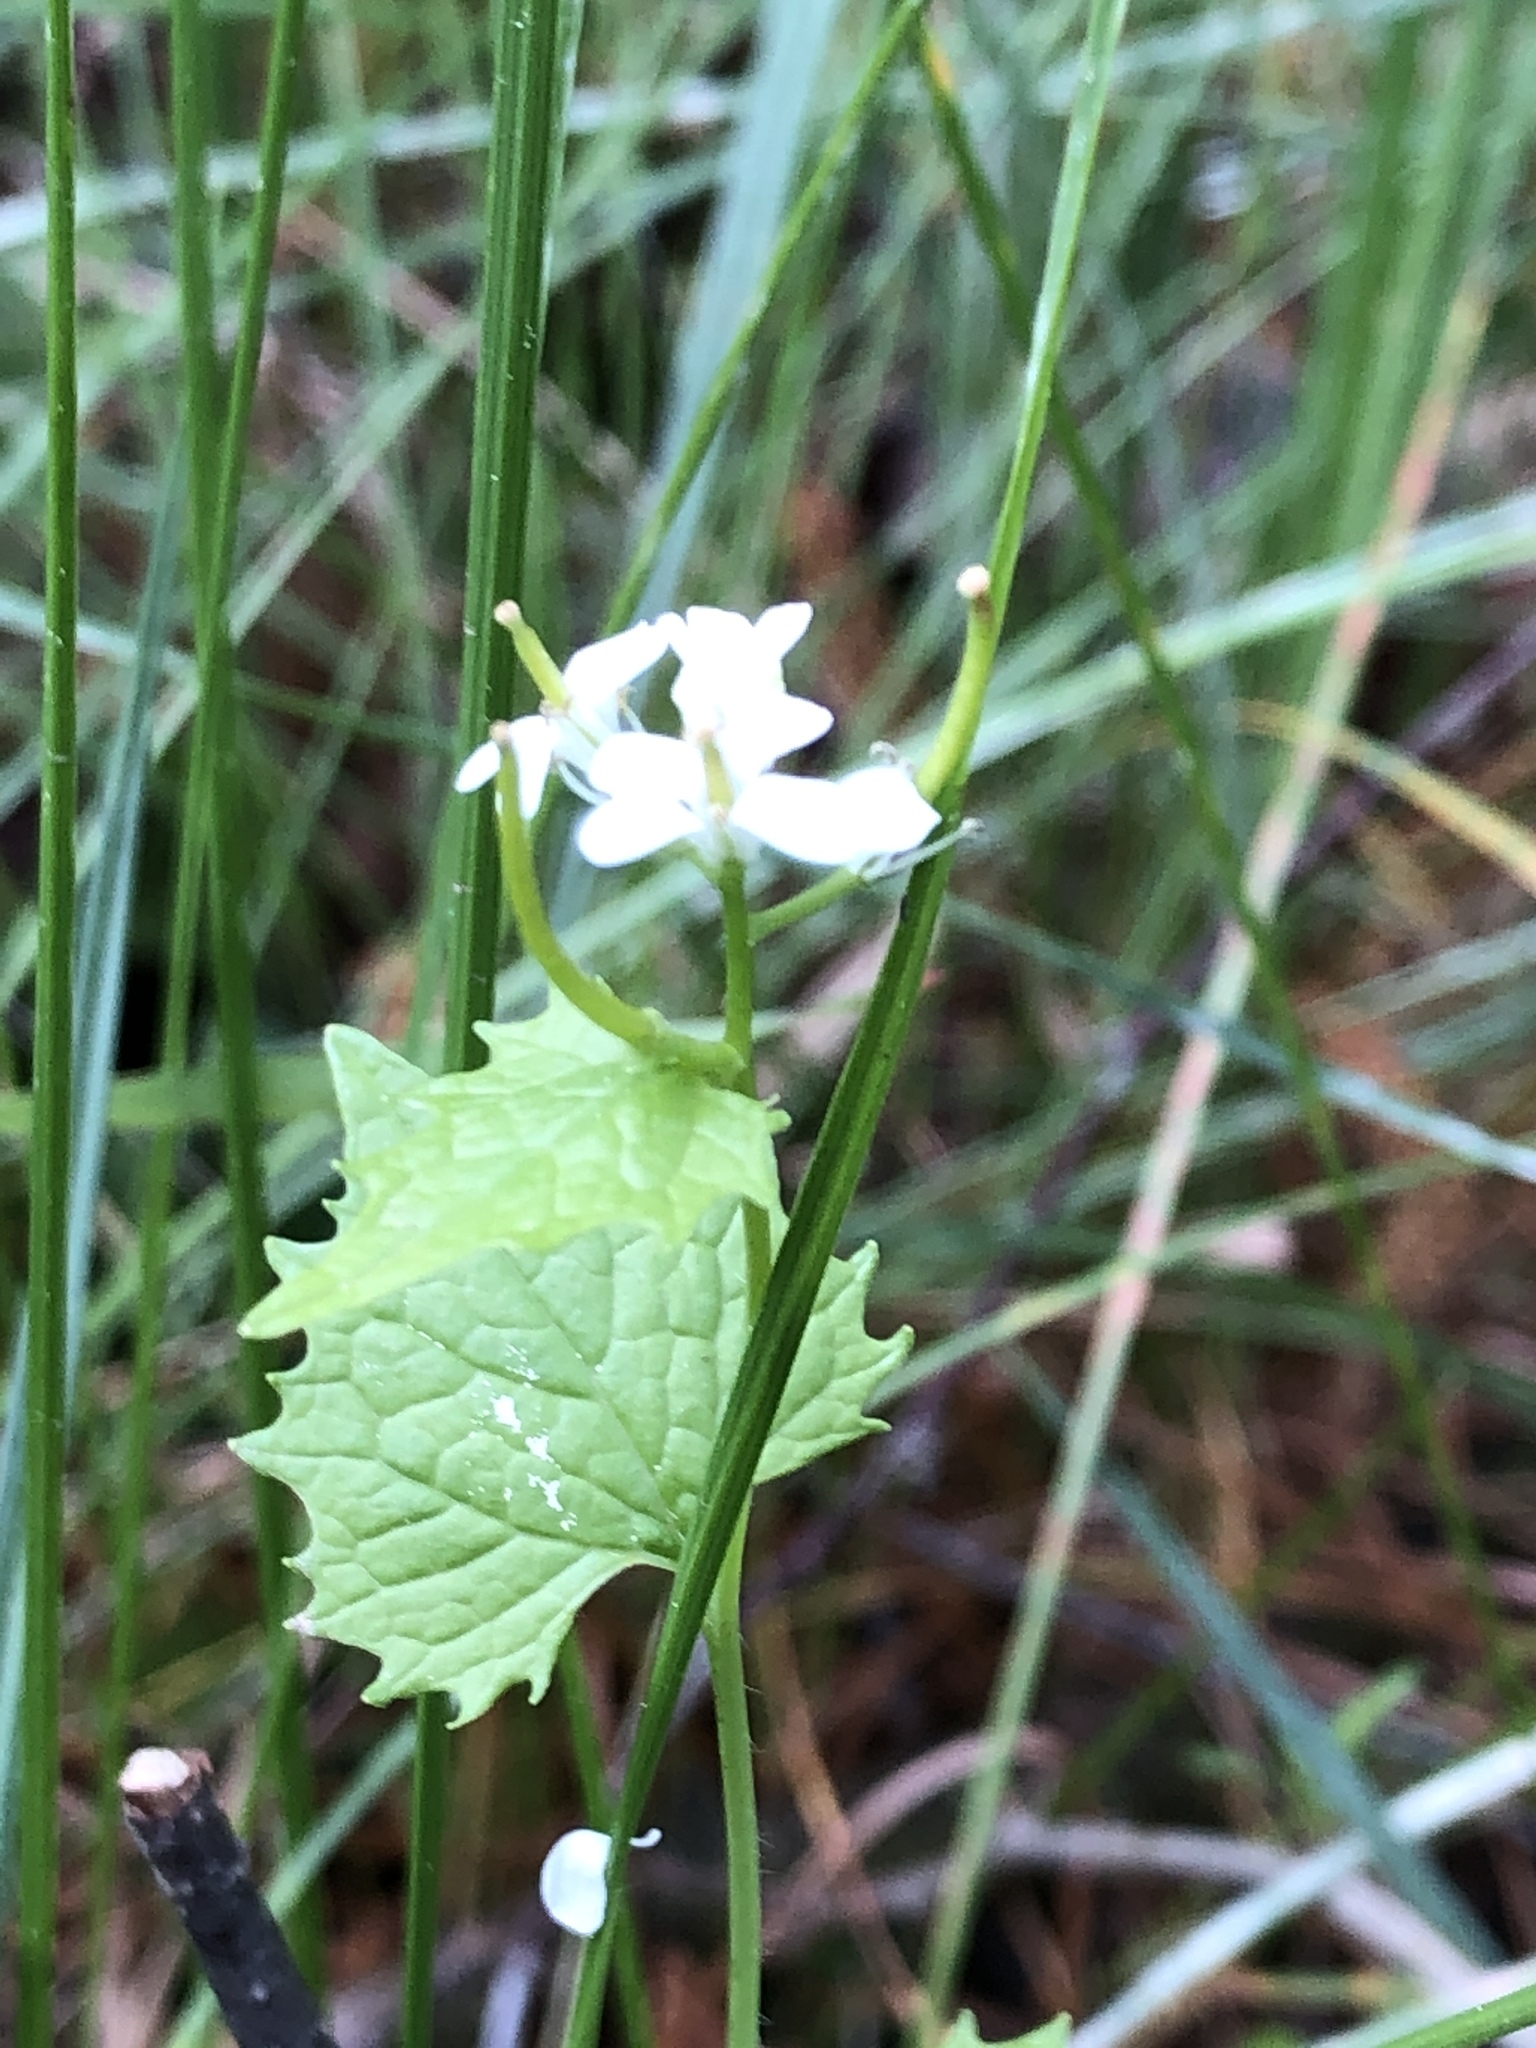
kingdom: Plantae
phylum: Tracheophyta
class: Magnoliopsida
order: Brassicales
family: Brassicaceae
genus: Alliaria
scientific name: Alliaria petiolata
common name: Garlic mustard
